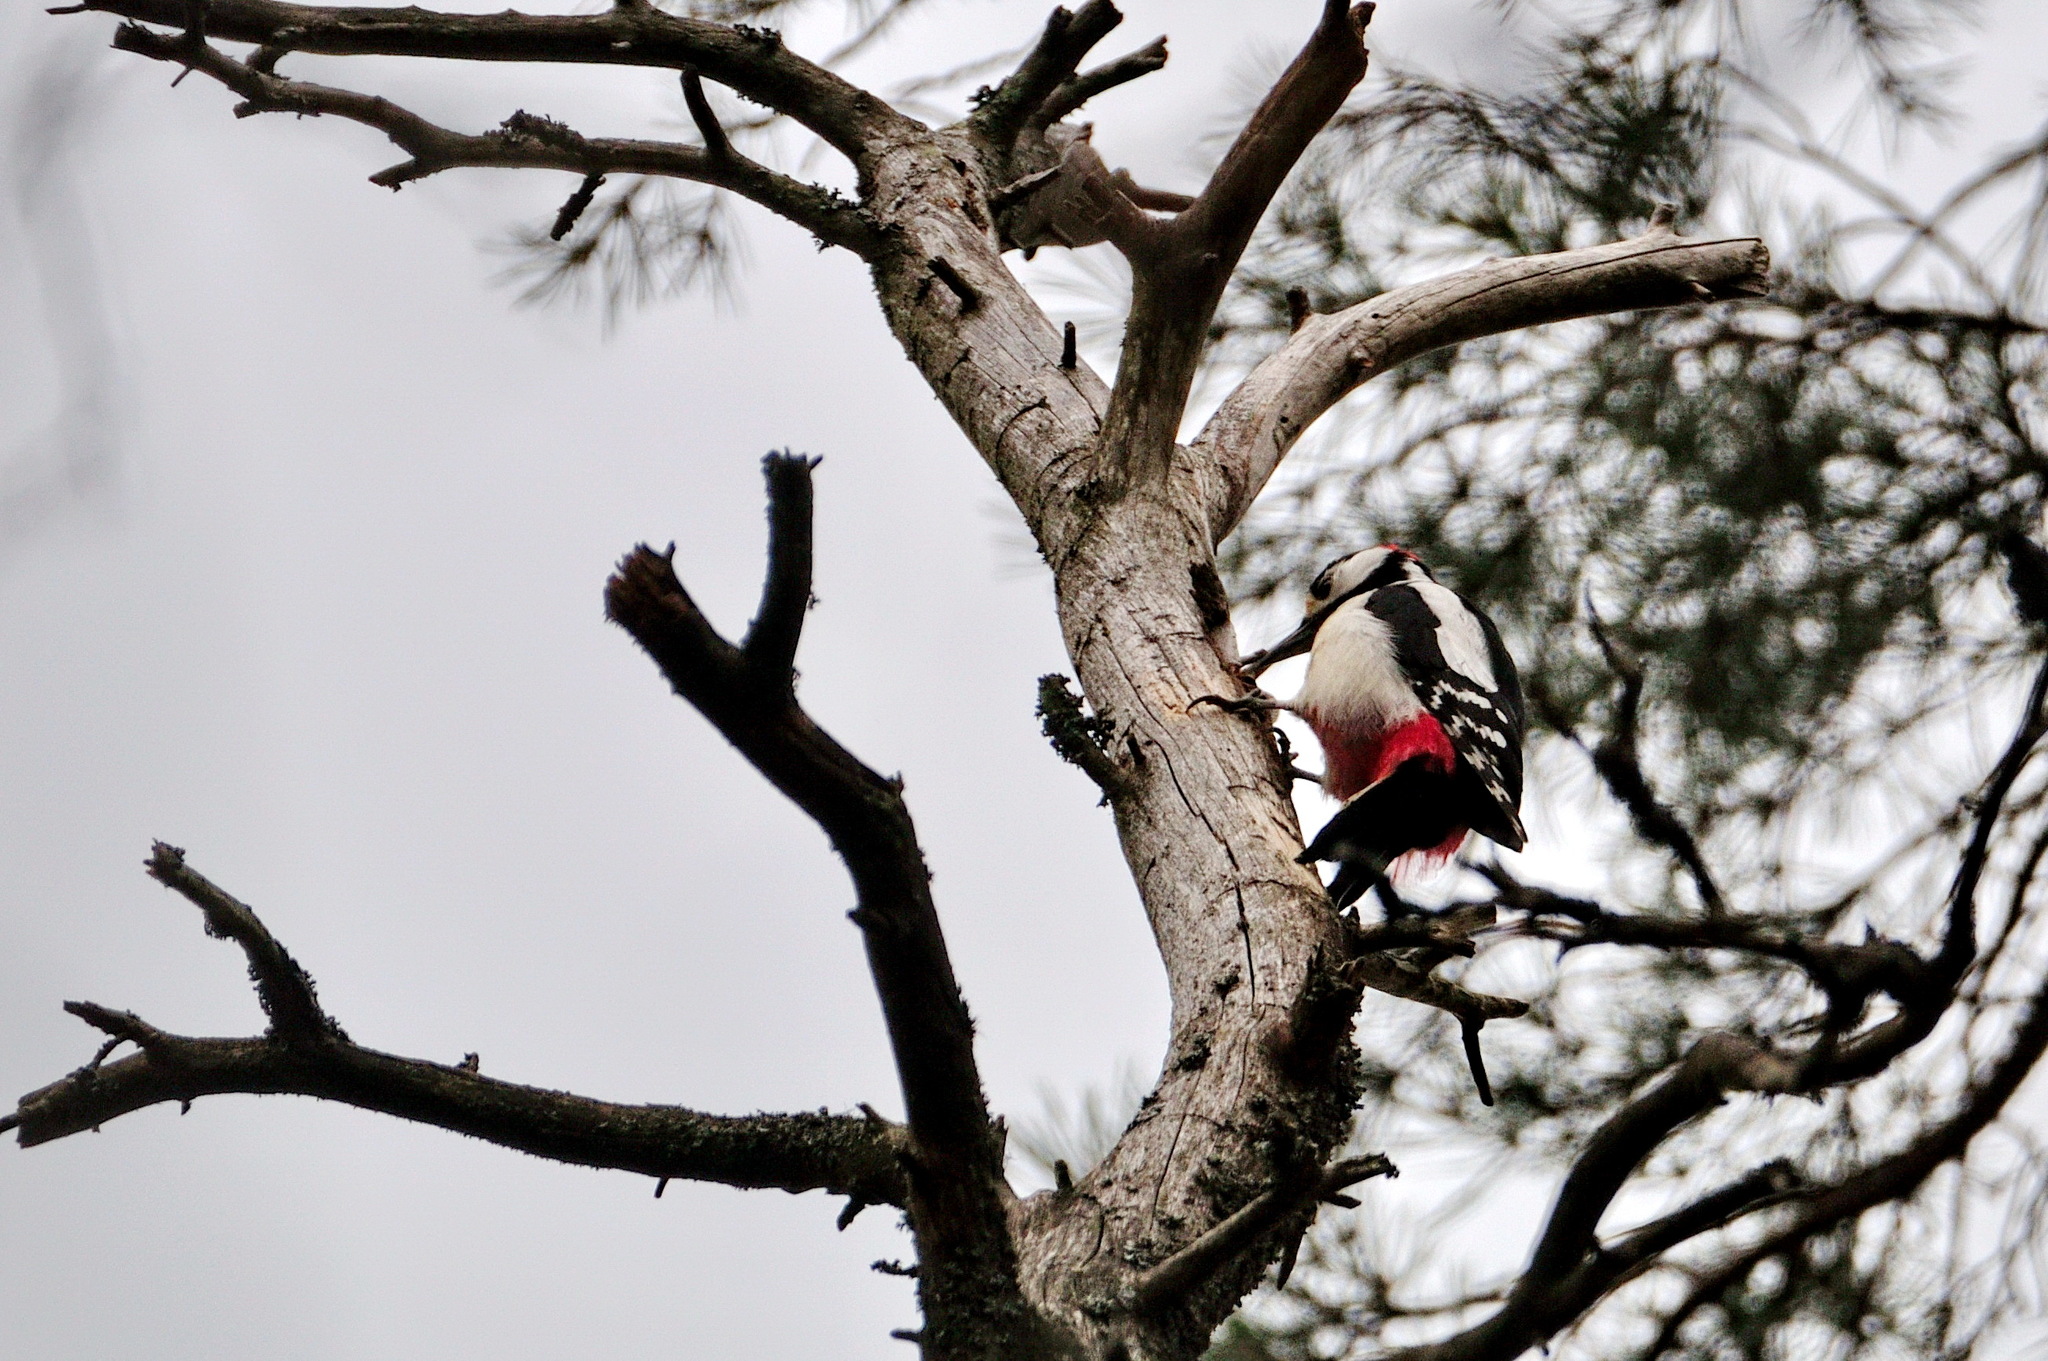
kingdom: Animalia
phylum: Chordata
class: Aves
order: Piciformes
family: Picidae
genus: Dendrocopos
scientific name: Dendrocopos major
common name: Great spotted woodpecker
